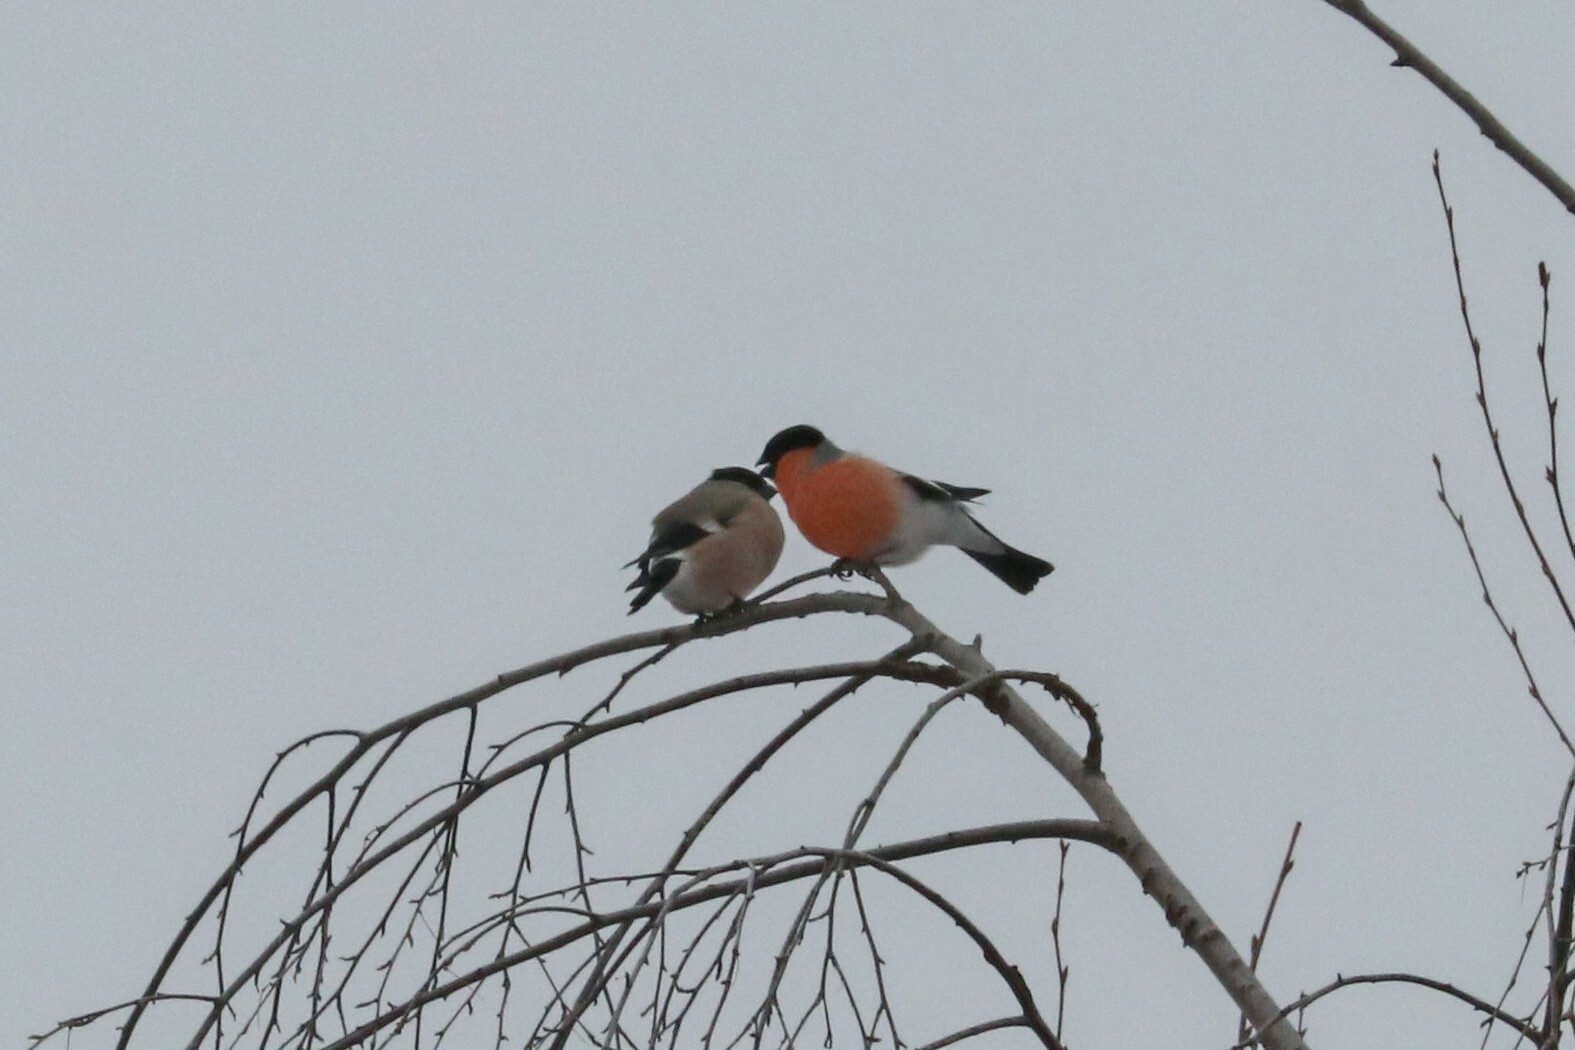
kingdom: Animalia
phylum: Chordata
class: Aves
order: Passeriformes
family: Fringillidae
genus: Pyrrhula
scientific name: Pyrrhula pyrrhula
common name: Eurasian bullfinch
